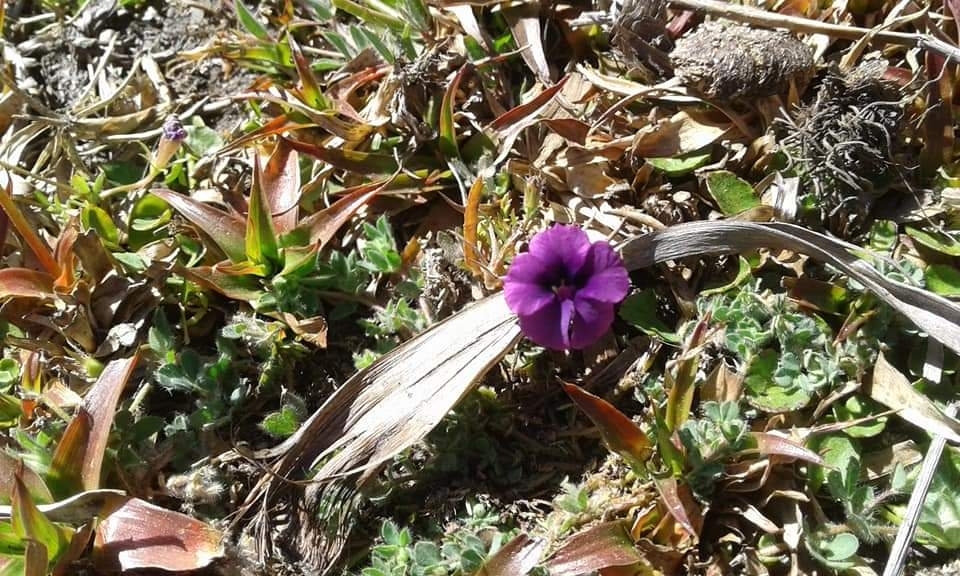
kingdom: Plantae
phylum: Tracheophyta
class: Magnoliopsida
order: Asterales
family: Campanulaceae
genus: Monopsis
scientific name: Monopsis debilis
